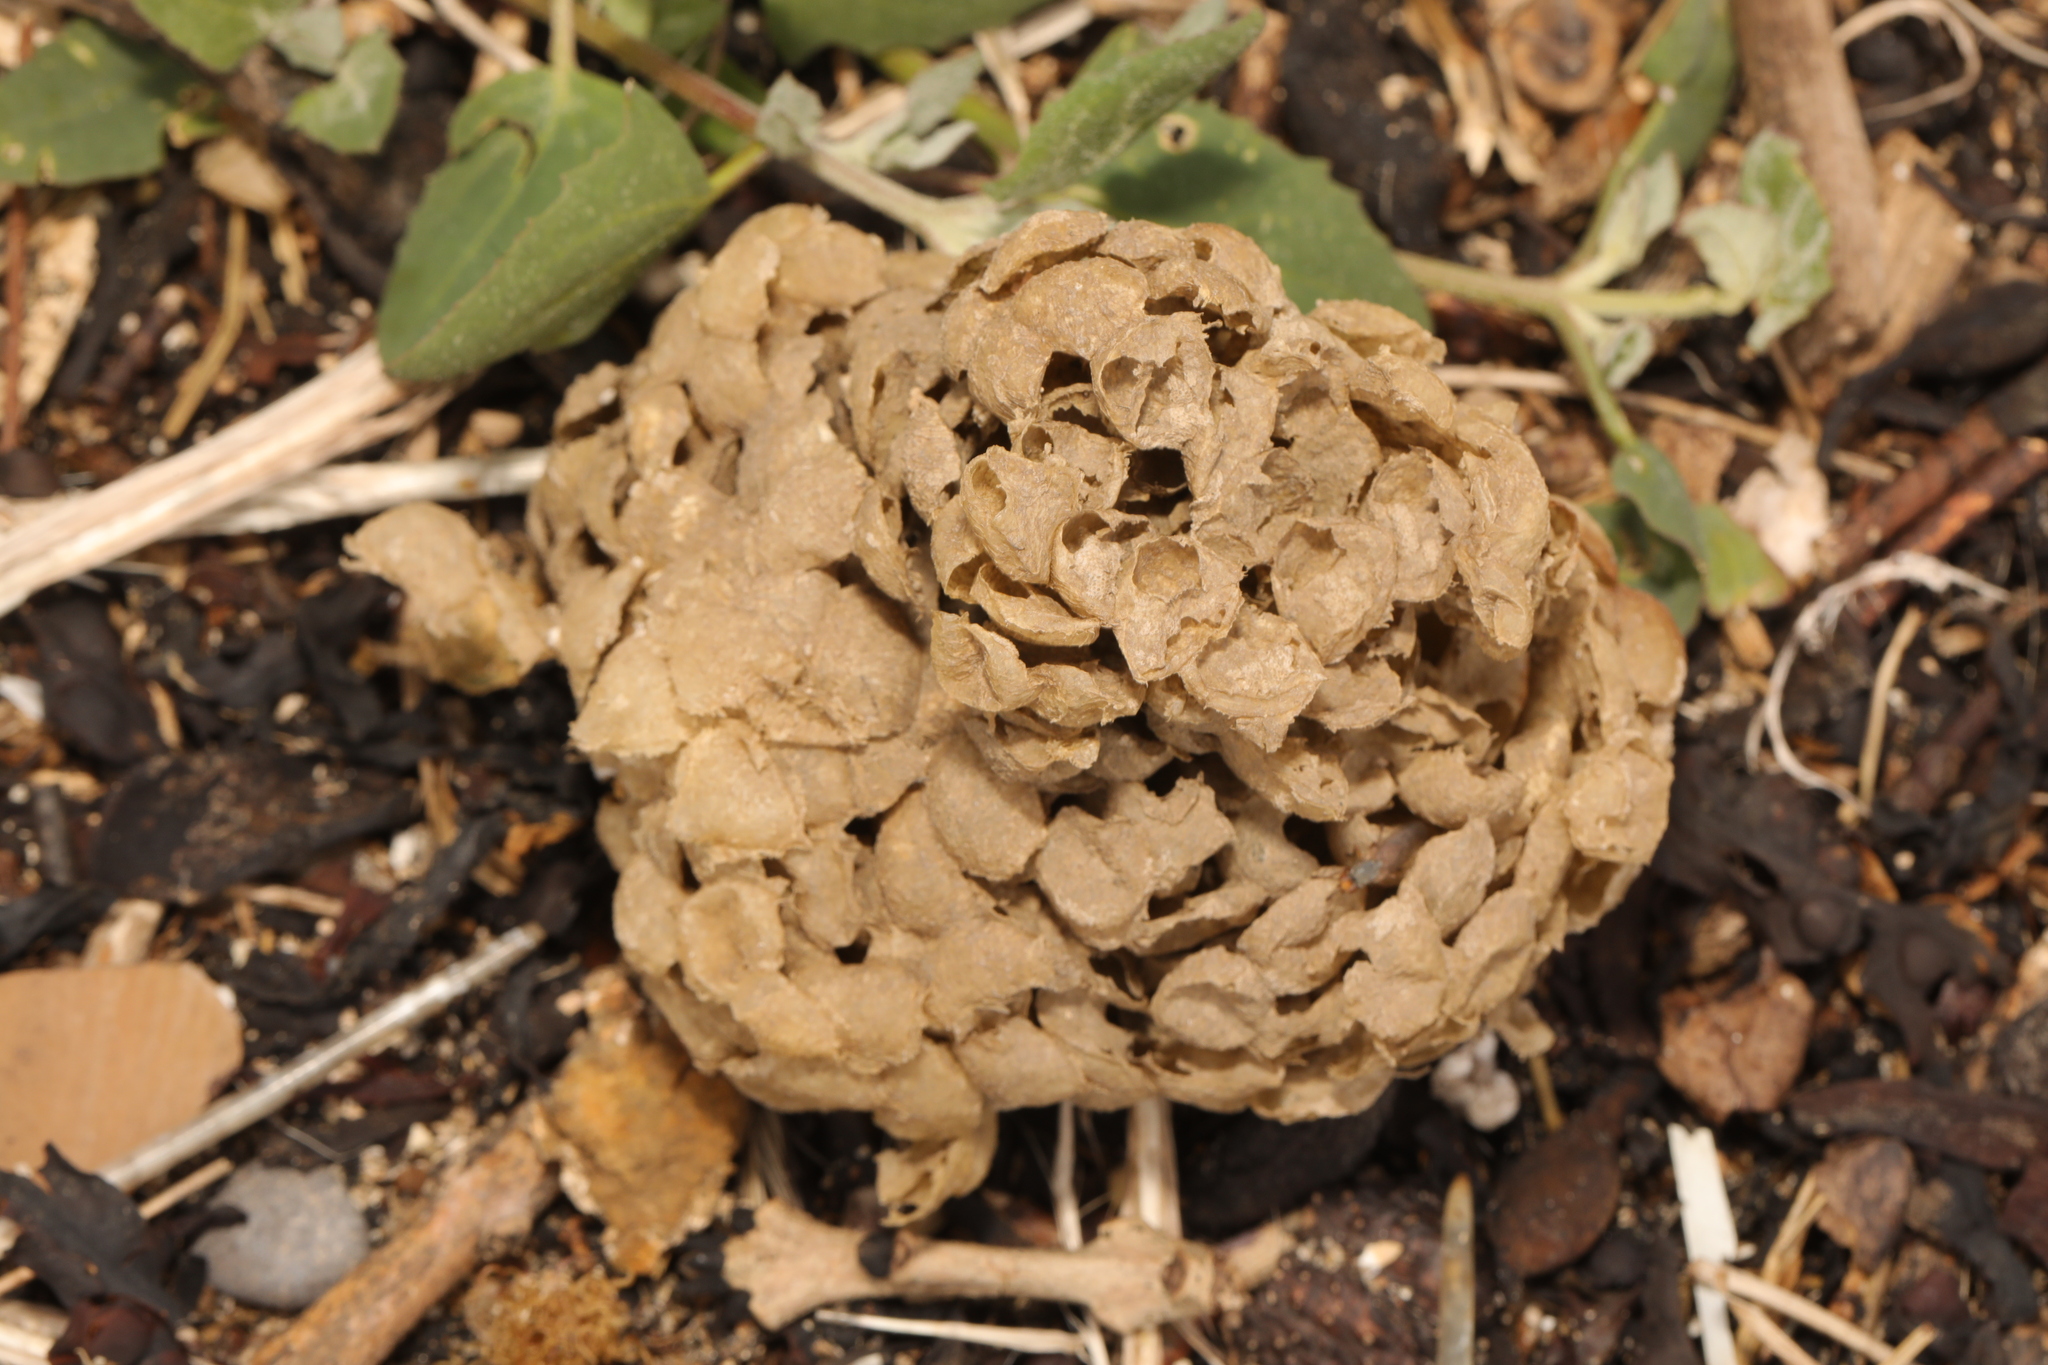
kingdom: Animalia
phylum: Mollusca
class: Gastropoda
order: Neogastropoda
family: Buccinidae
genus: Buccinum
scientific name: Buccinum undatum
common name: Common whelk
